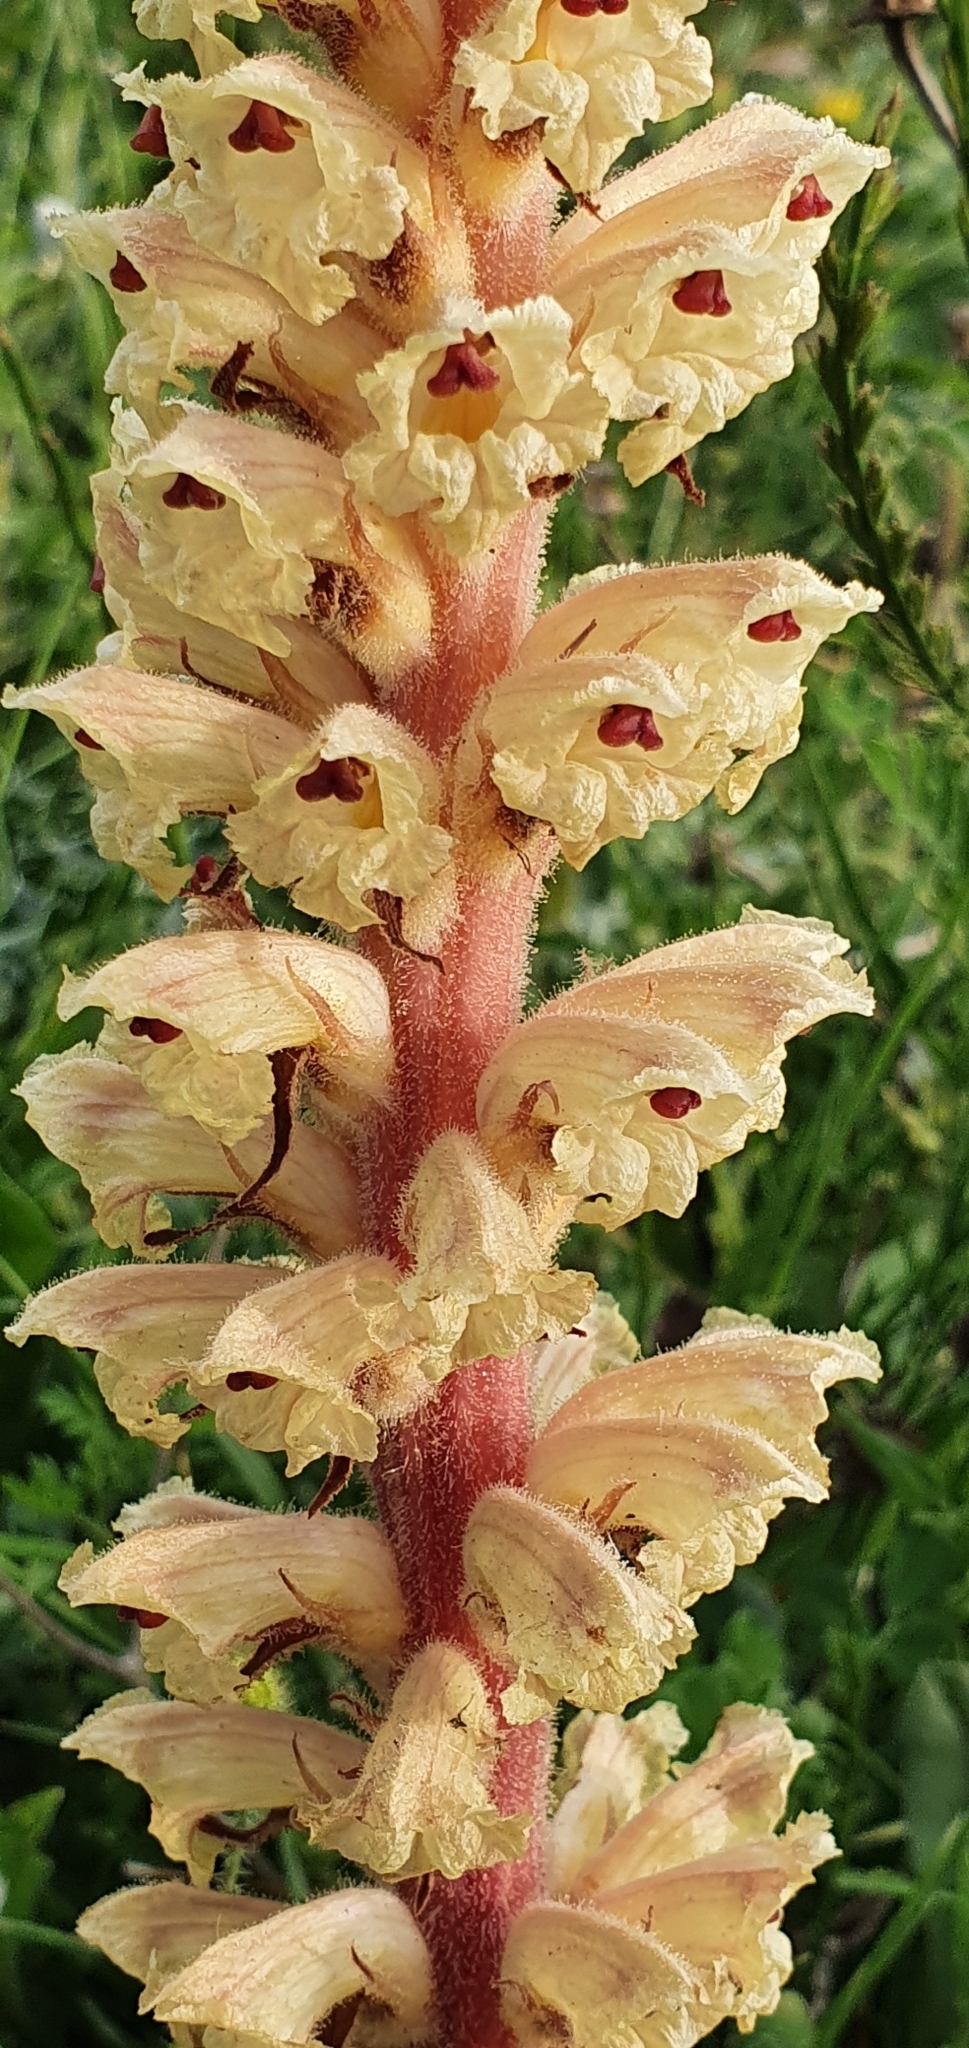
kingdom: Plantae
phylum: Tracheophyta
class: Magnoliopsida
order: Lamiales
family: Orobanchaceae
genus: Orobanche
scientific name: Orobanche amethystea
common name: Amethyst broomrape
